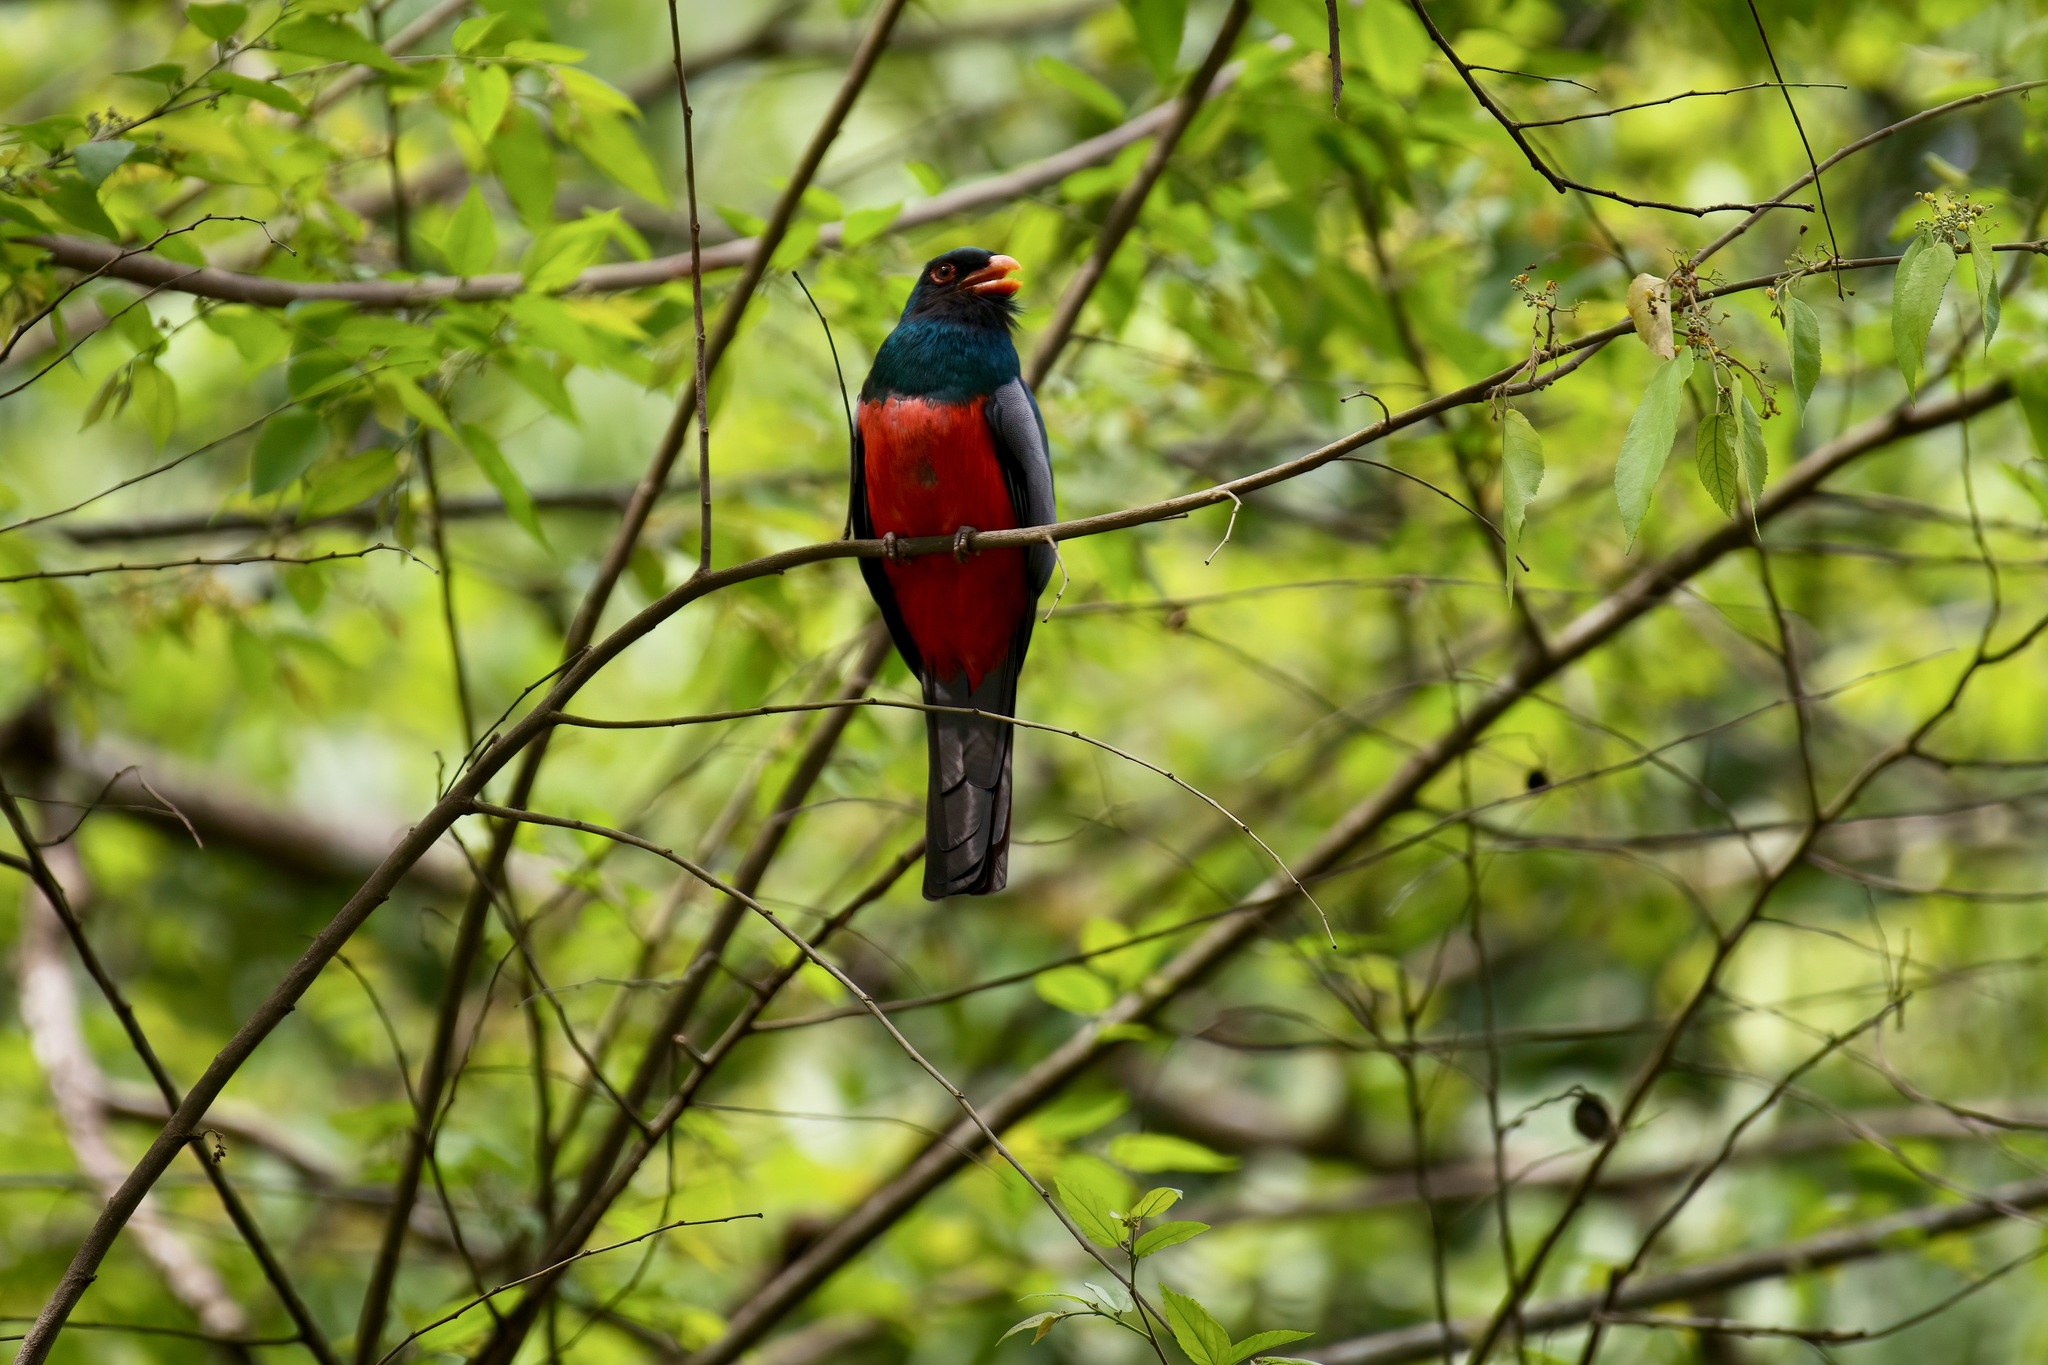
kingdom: Animalia
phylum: Chordata
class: Aves
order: Trogoniformes
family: Trogonidae
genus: Trogon
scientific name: Trogon massena
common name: Slaty-tailed trogon
